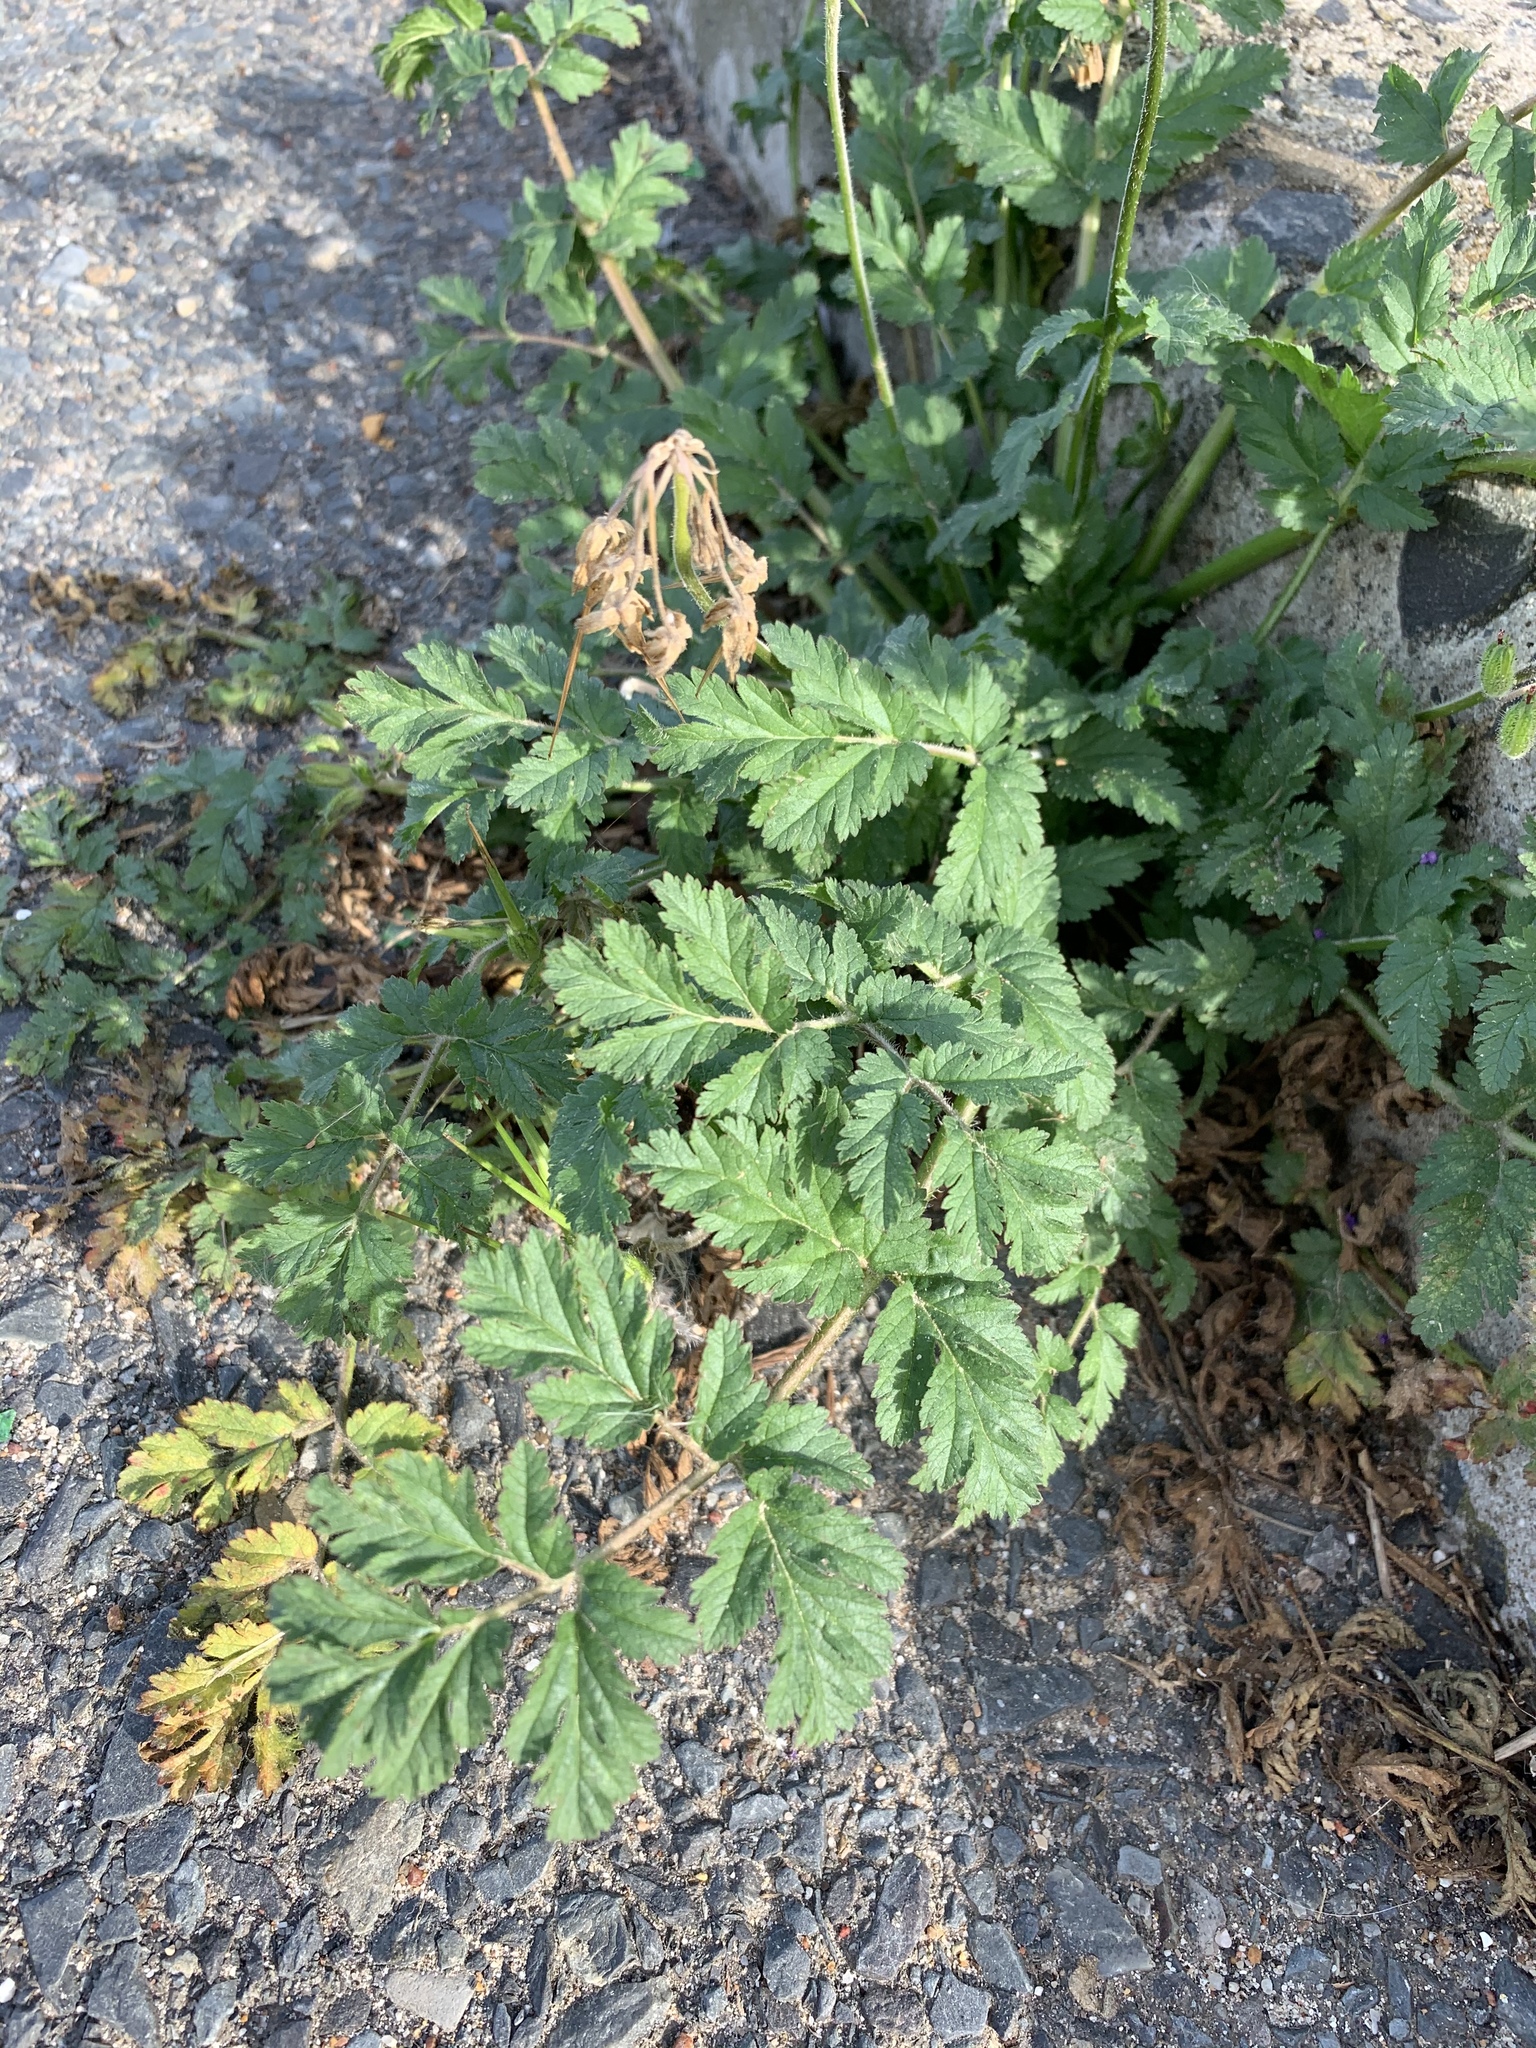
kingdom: Plantae
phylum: Tracheophyta
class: Magnoliopsida
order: Geraniales
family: Geraniaceae
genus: Erodium
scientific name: Erodium moschatum
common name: Musk stork's-bill
